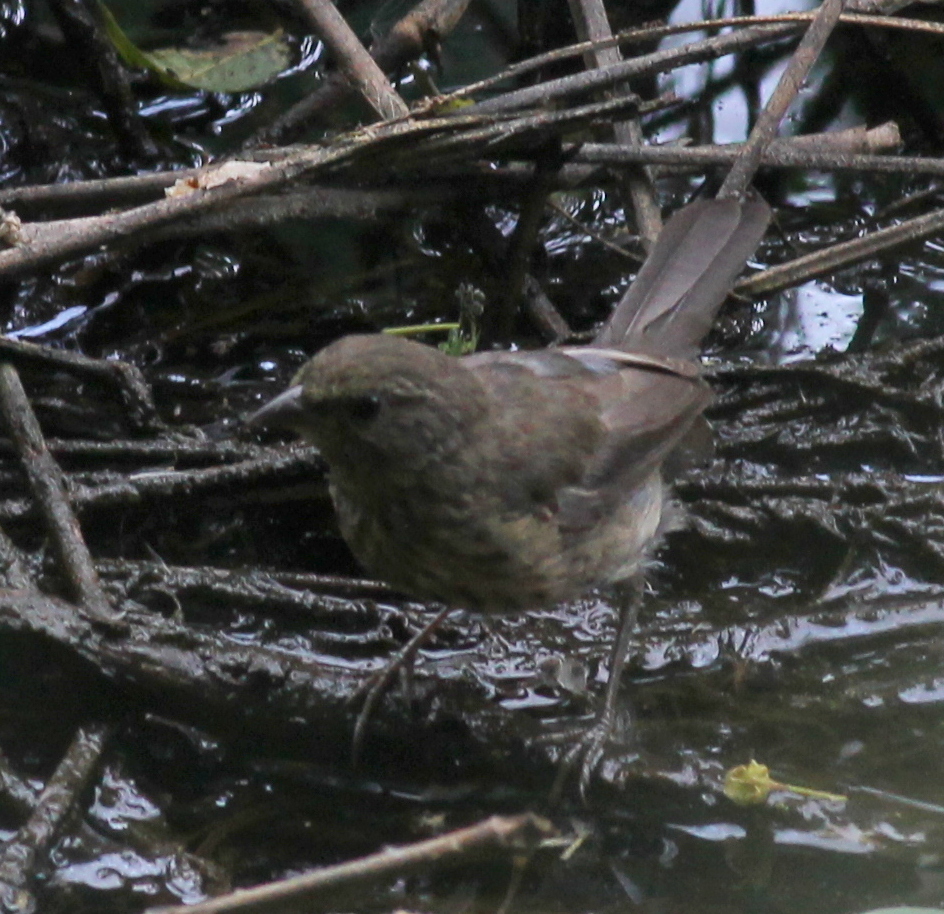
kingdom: Animalia
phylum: Chordata
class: Aves
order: Passeriformes
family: Thraupidae
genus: Poospiza
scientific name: Poospiza nigrorufa
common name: Black-and-rufous warbling finch
